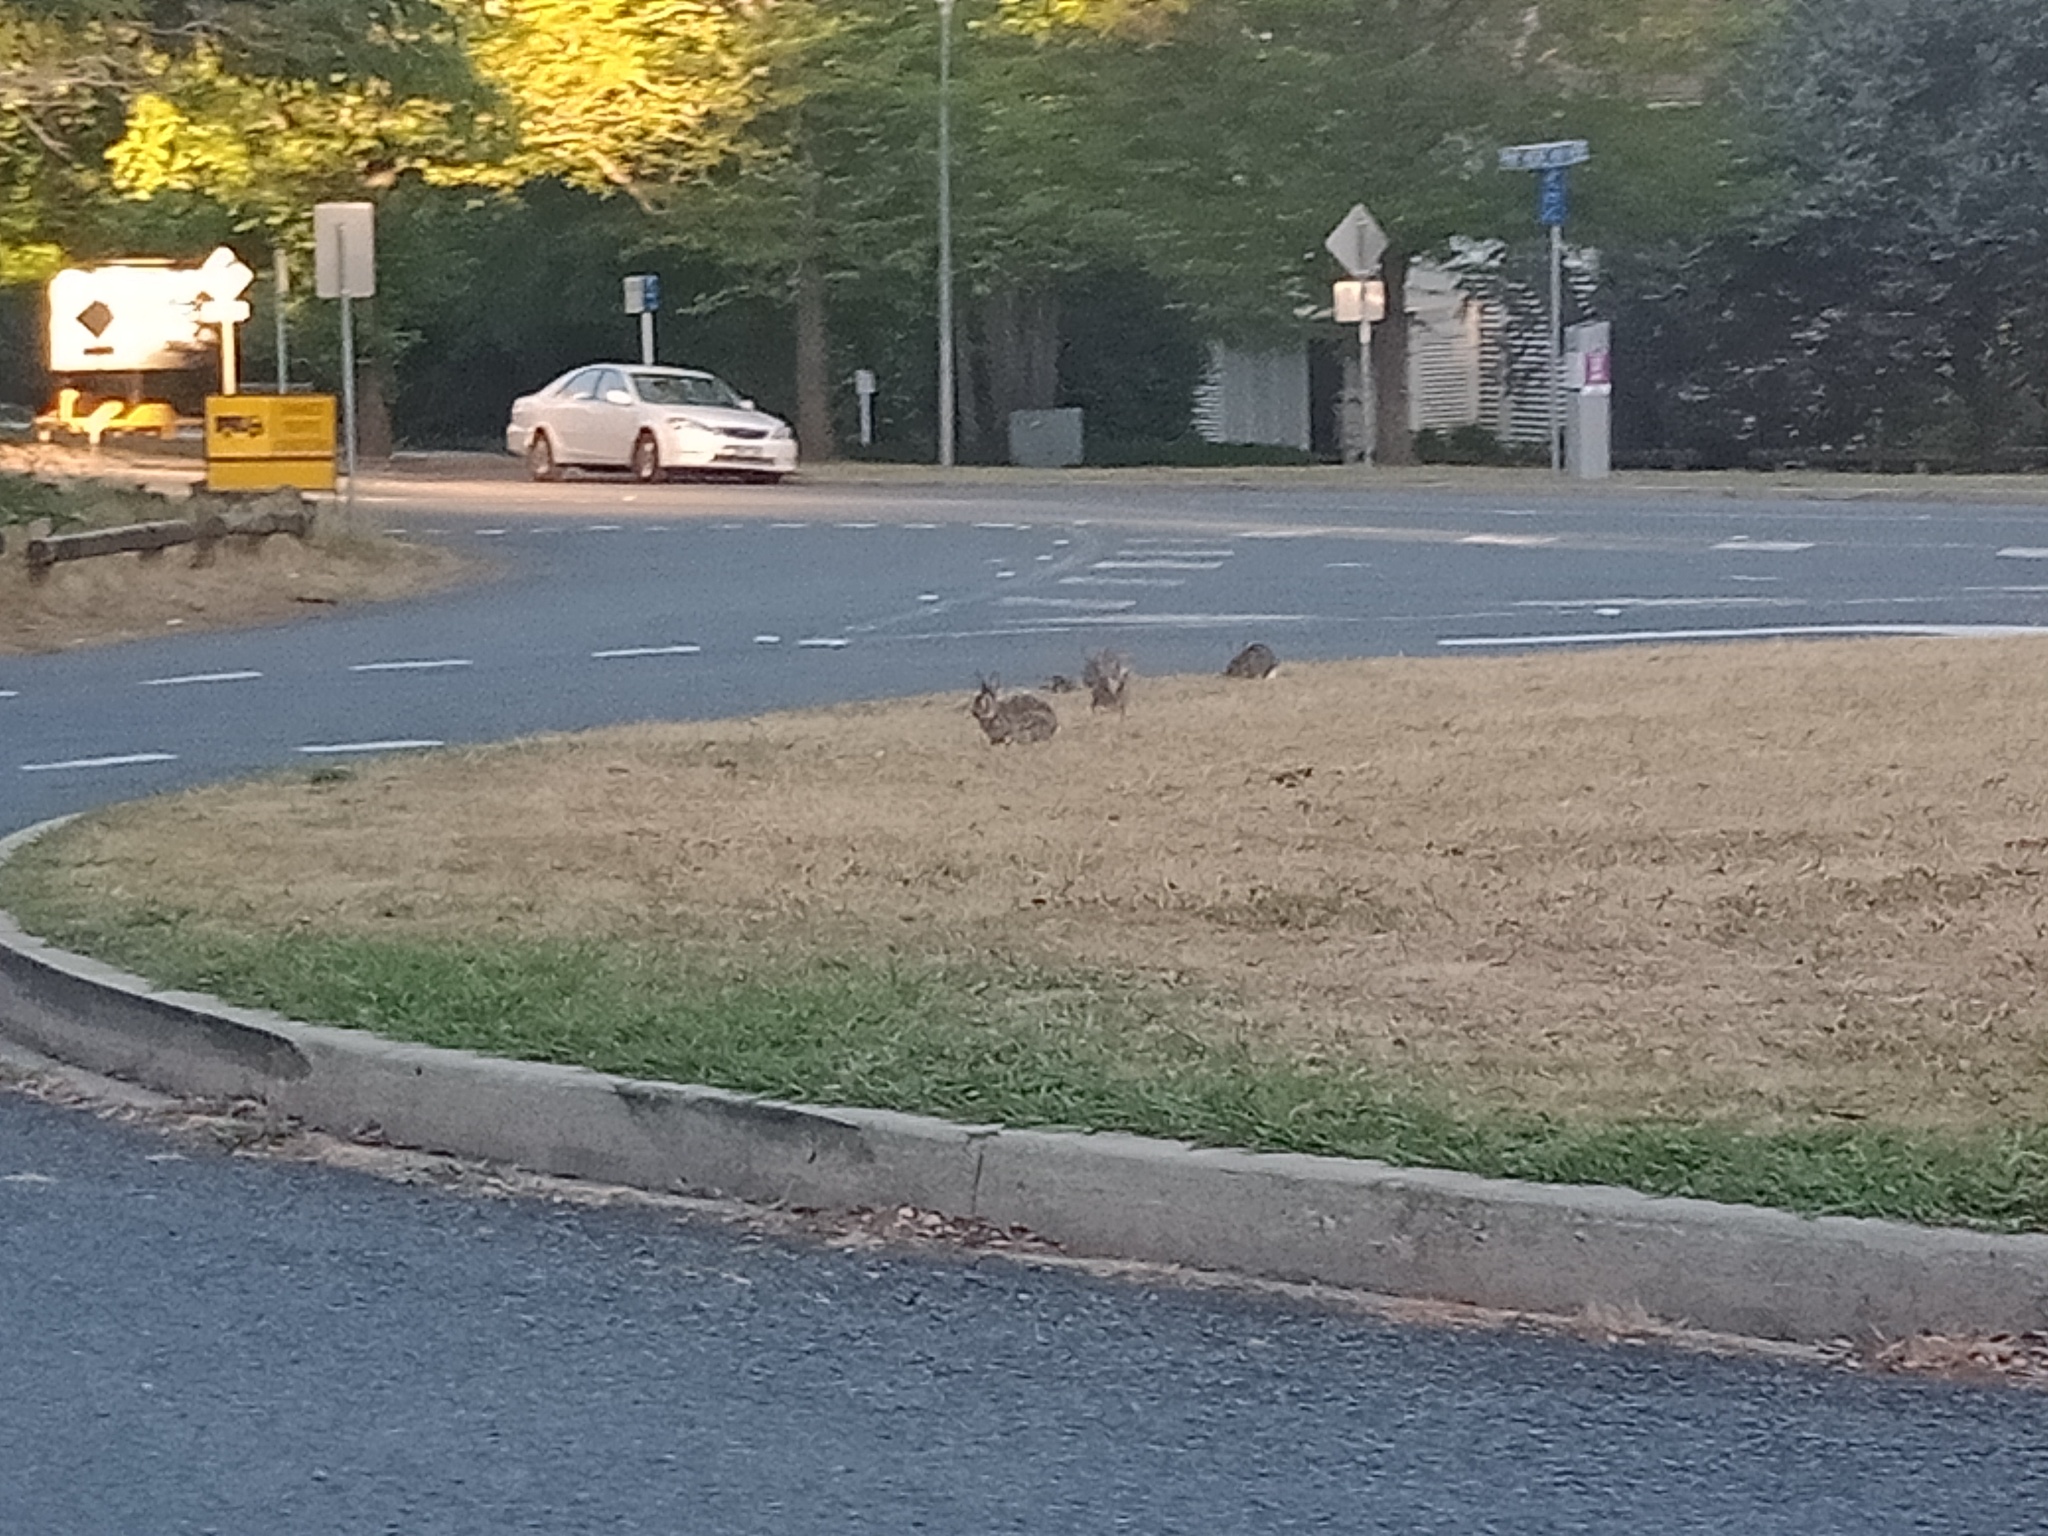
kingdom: Animalia
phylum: Chordata
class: Mammalia
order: Lagomorpha
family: Leporidae
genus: Oryctolagus
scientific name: Oryctolagus cuniculus
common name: European rabbit
